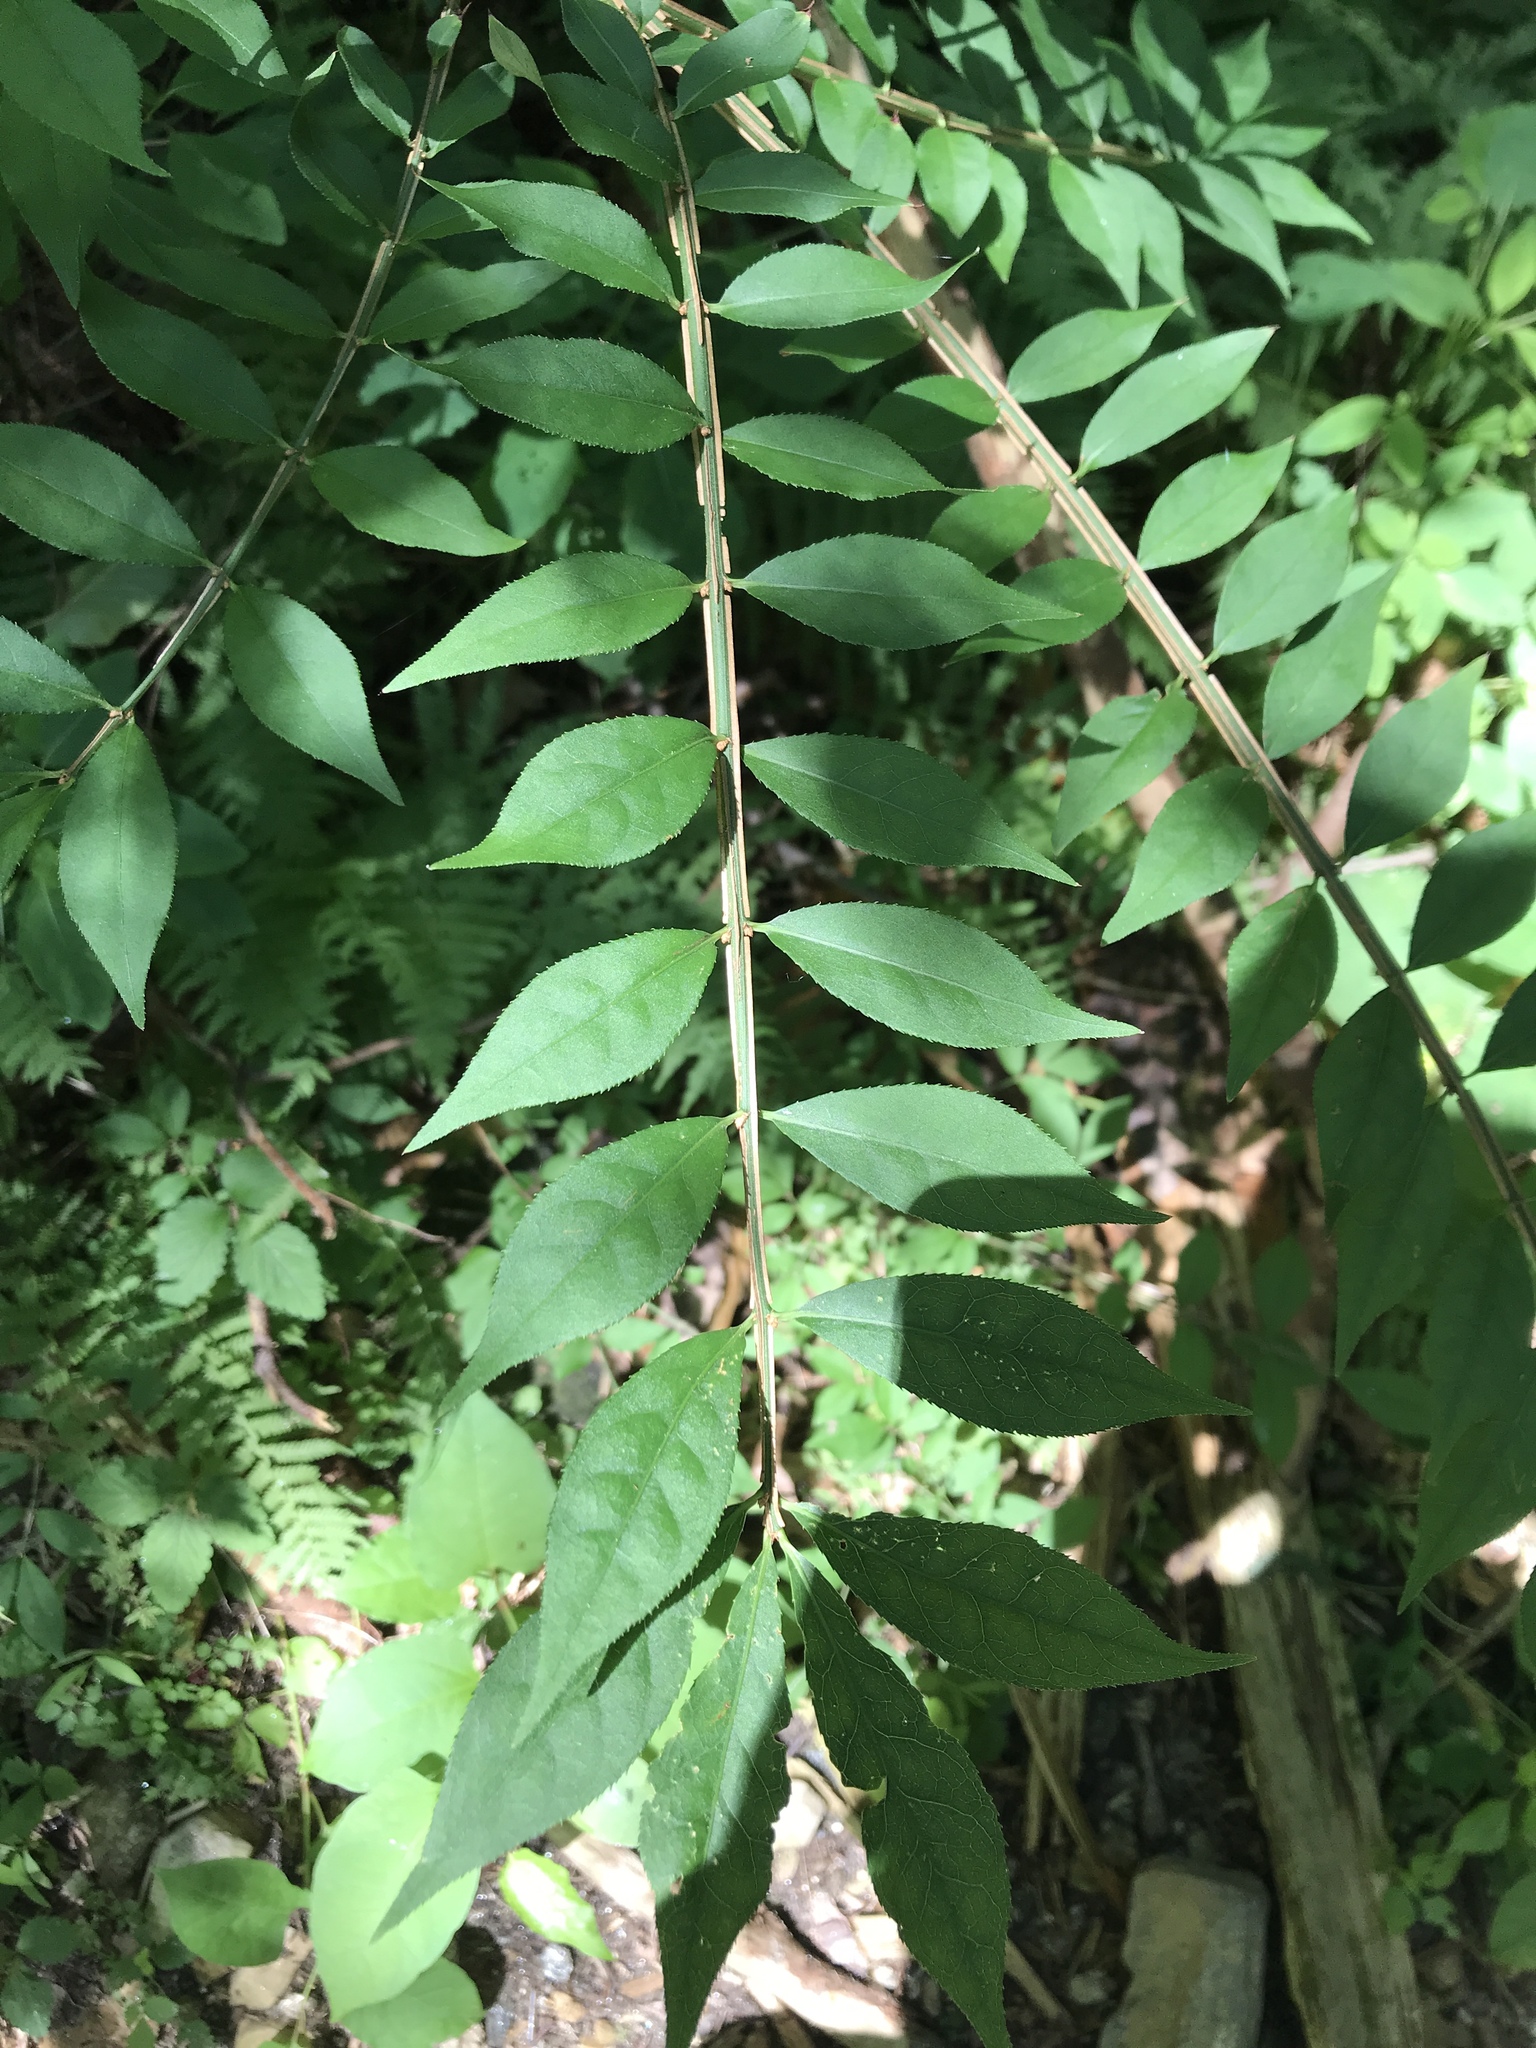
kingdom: Plantae
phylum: Tracheophyta
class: Magnoliopsida
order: Celastrales
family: Celastraceae
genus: Euonymus
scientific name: Euonymus alatus
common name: Winged euonymus
